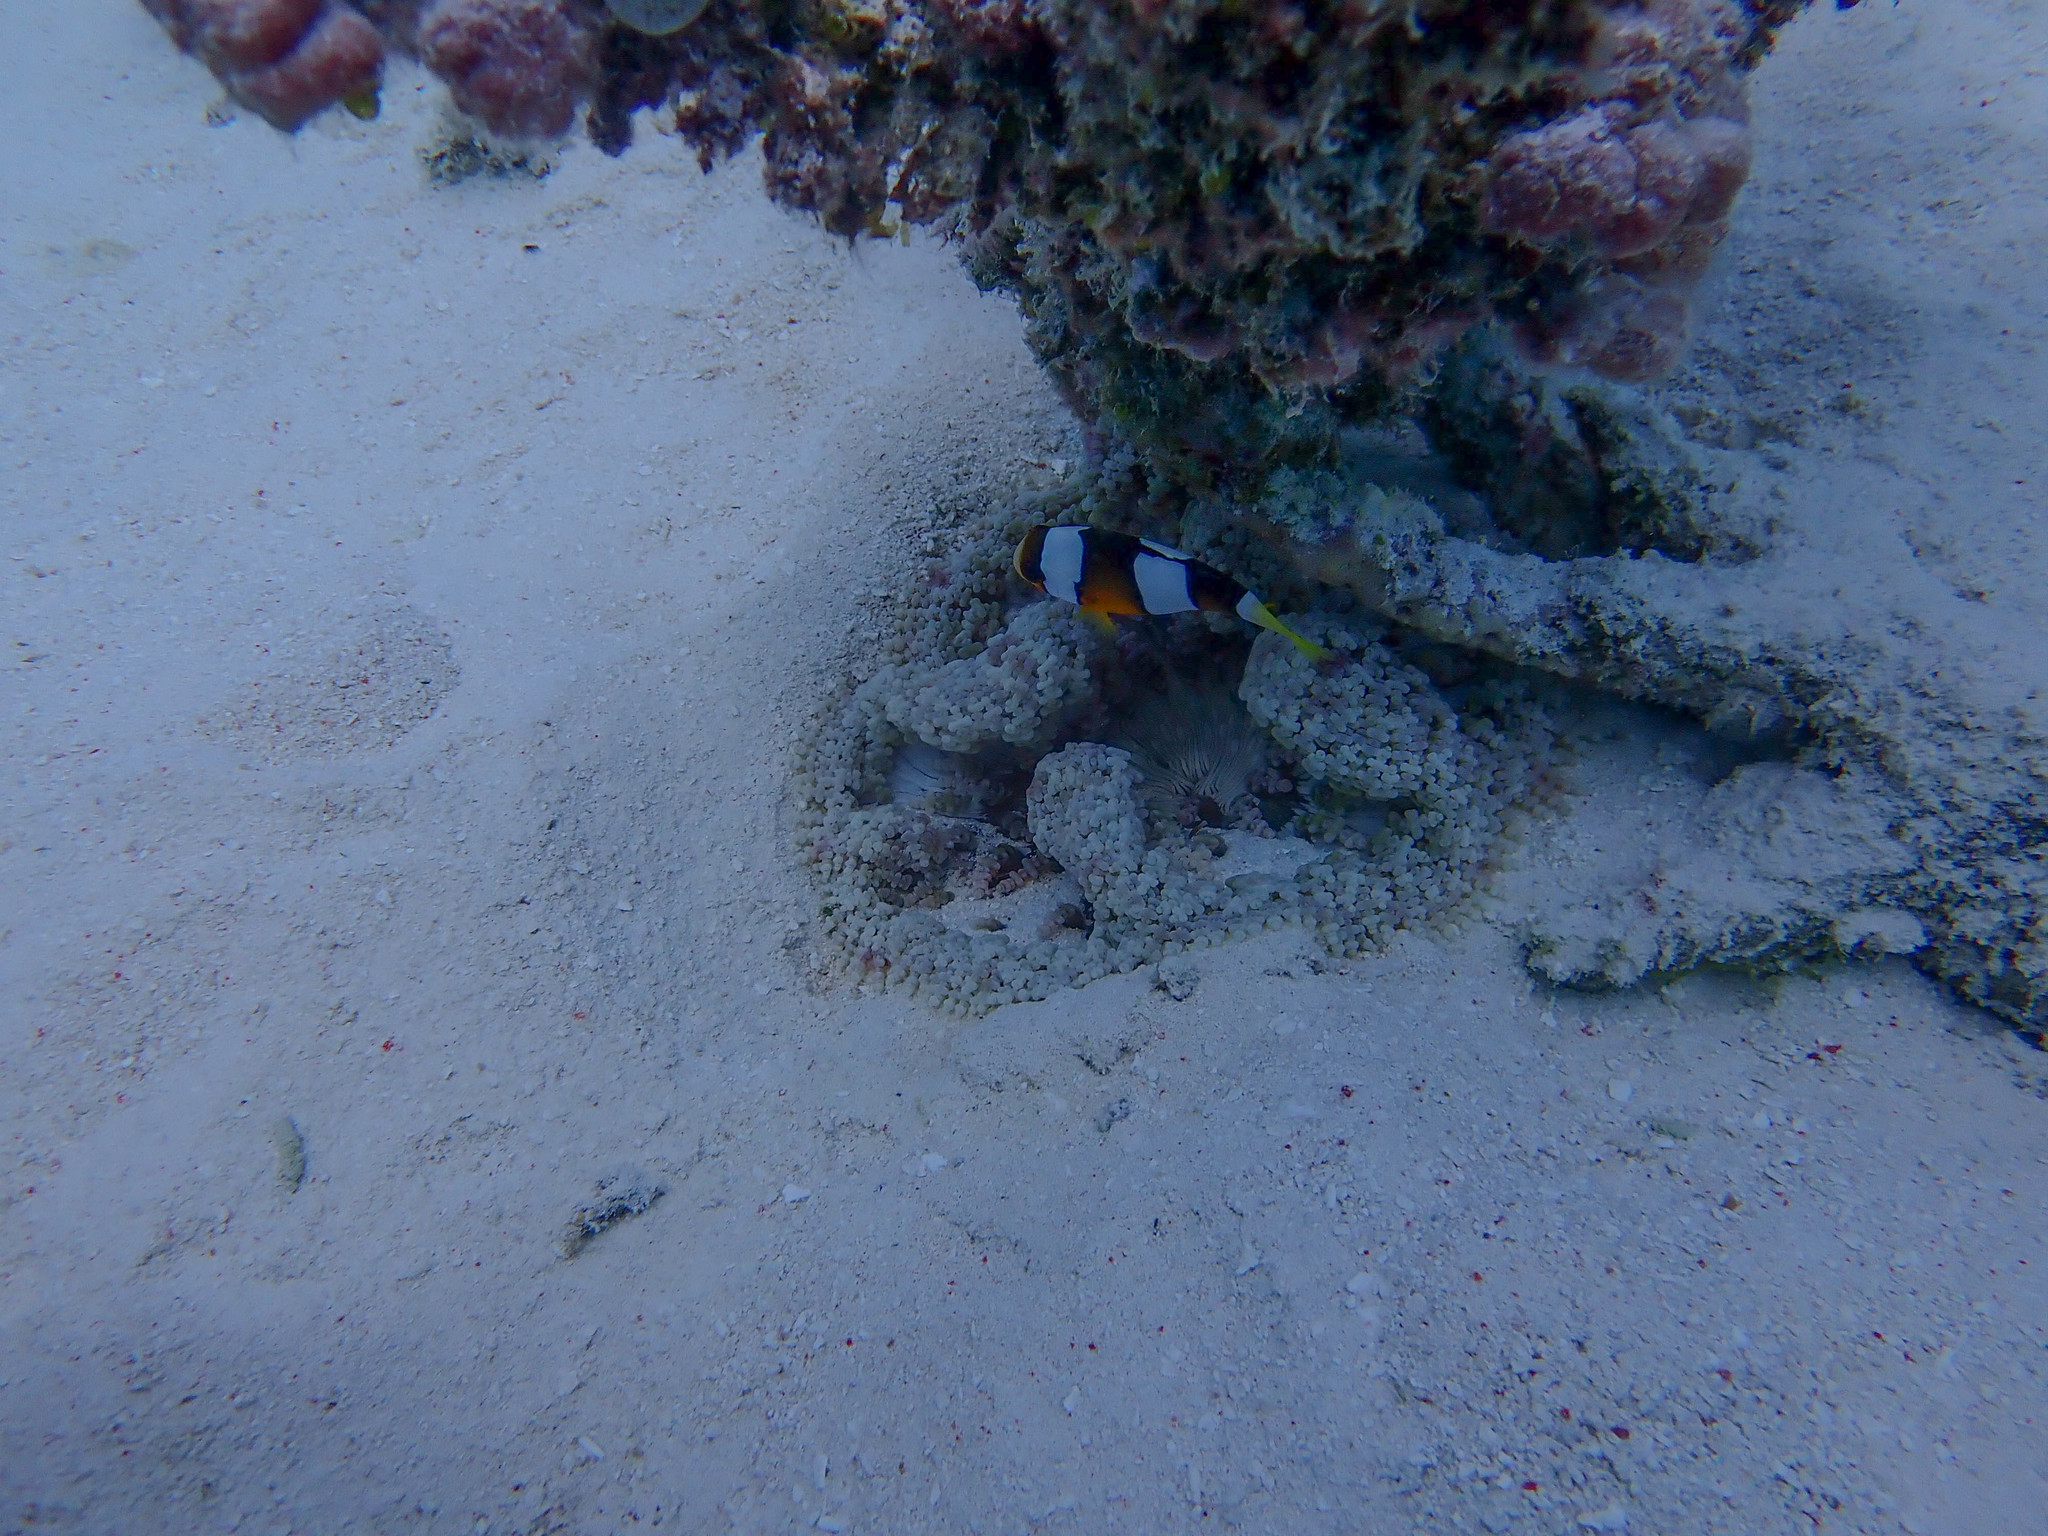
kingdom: Animalia
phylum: Chordata
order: Perciformes
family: Pomacentridae
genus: Amphiprion
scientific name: Amphiprion clarkii
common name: Clark's anemonefish
